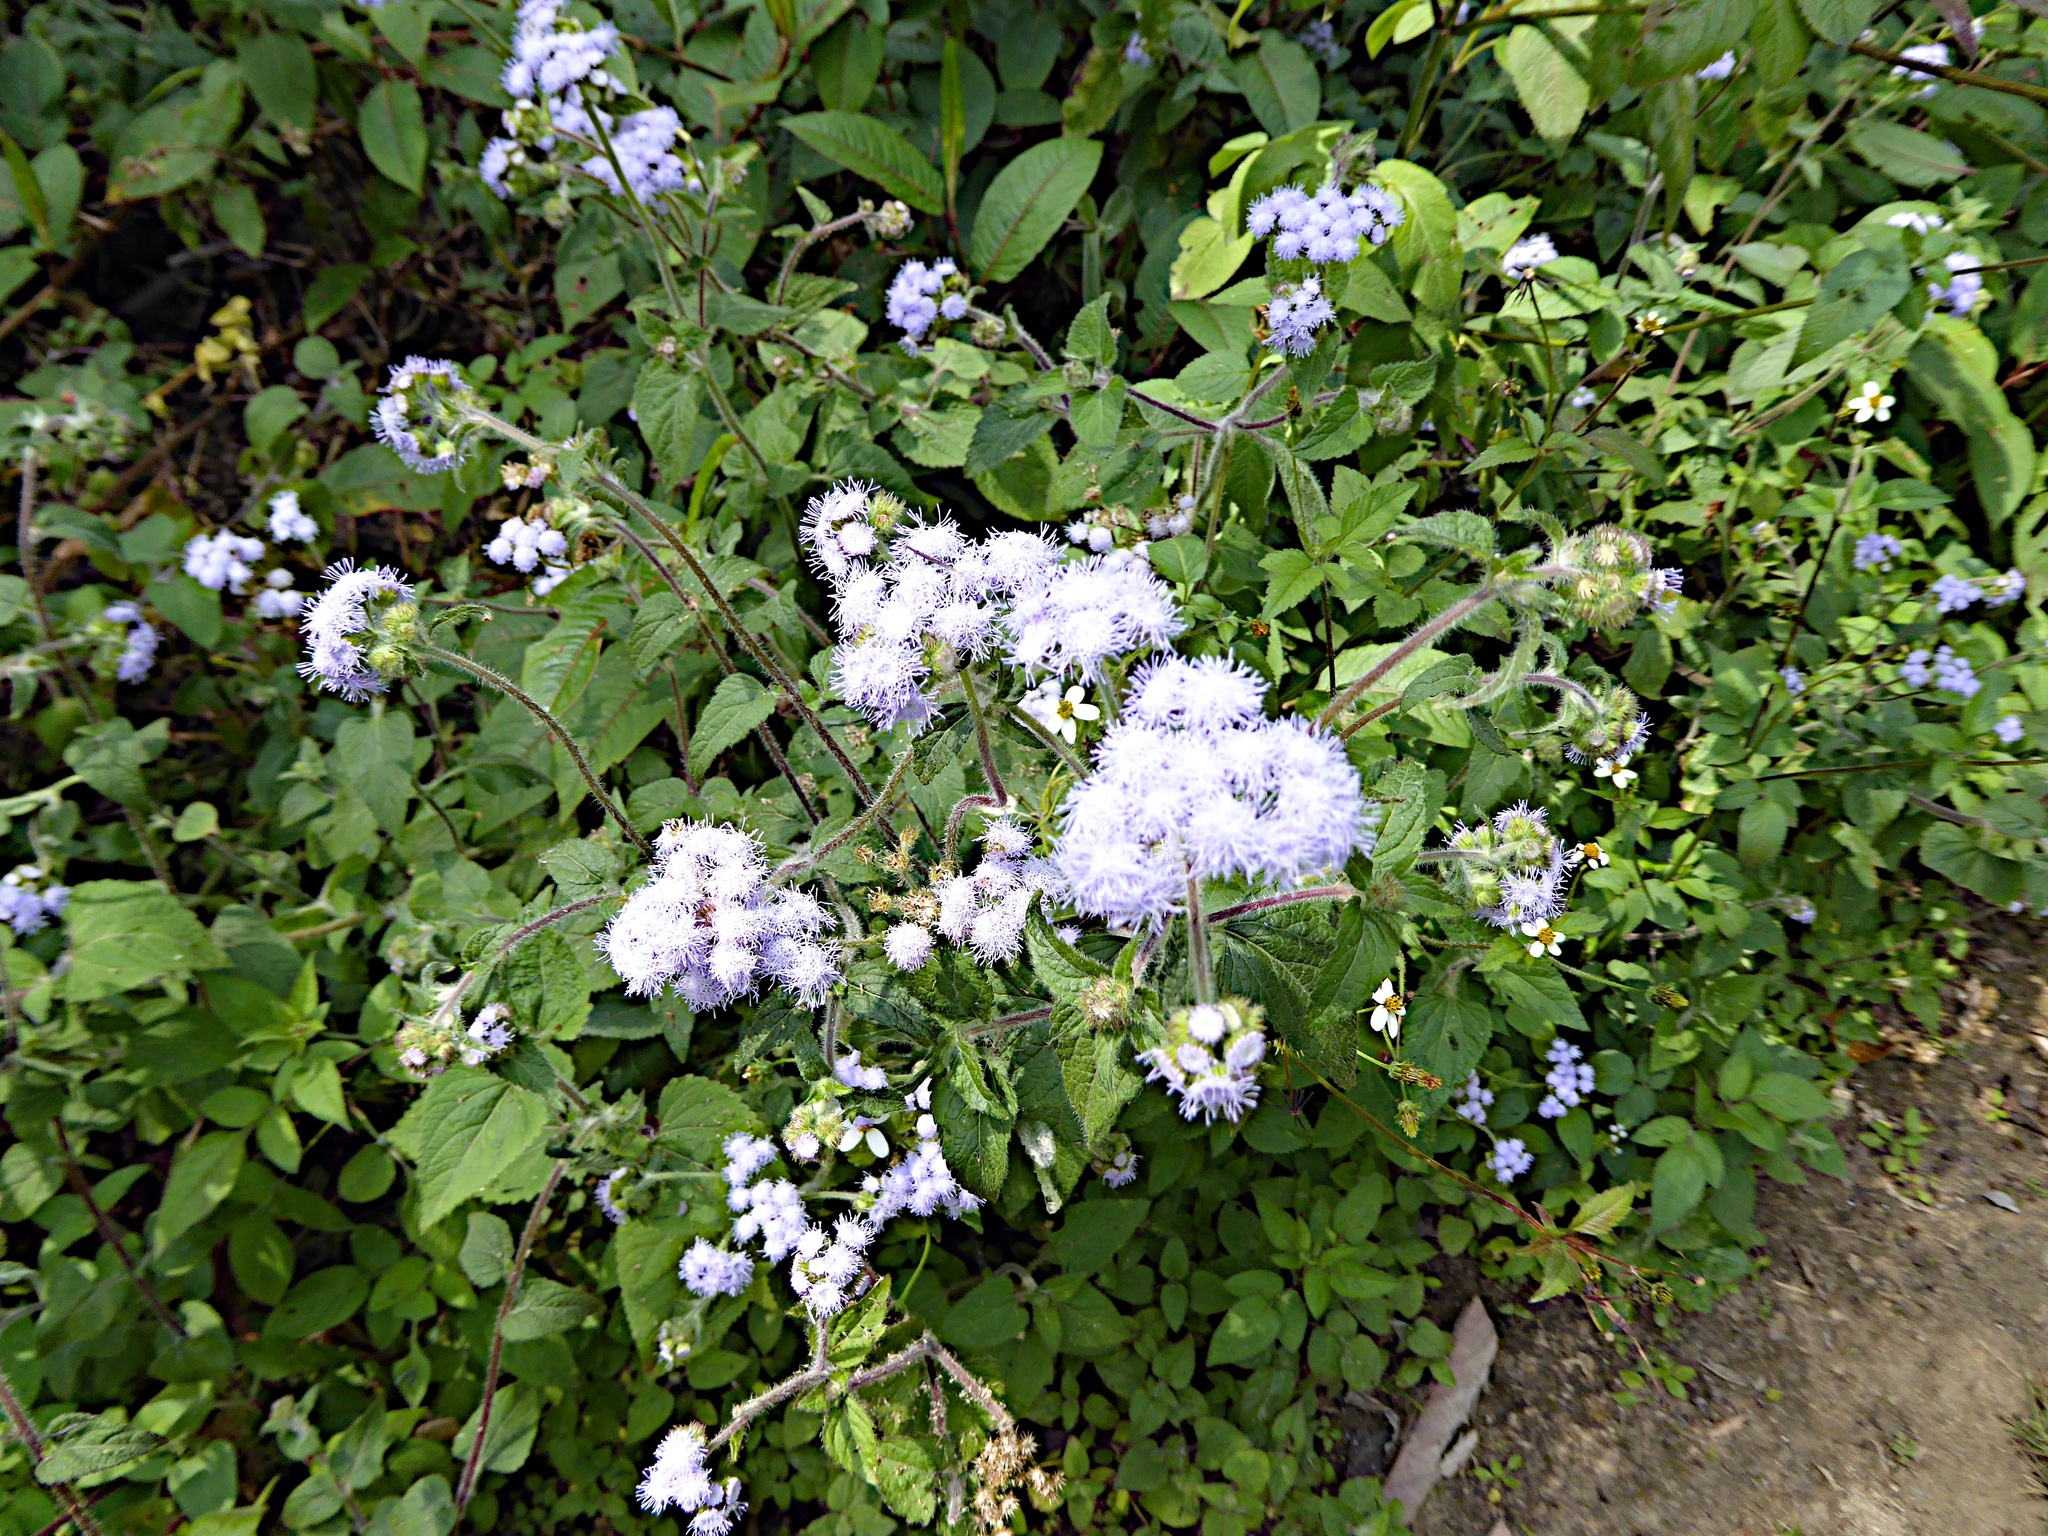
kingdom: Plantae
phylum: Tracheophyta
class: Magnoliopsida
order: Asterales
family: Asteraceae
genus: Ageratum
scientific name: Ageratum houstonianum
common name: Bluemink
